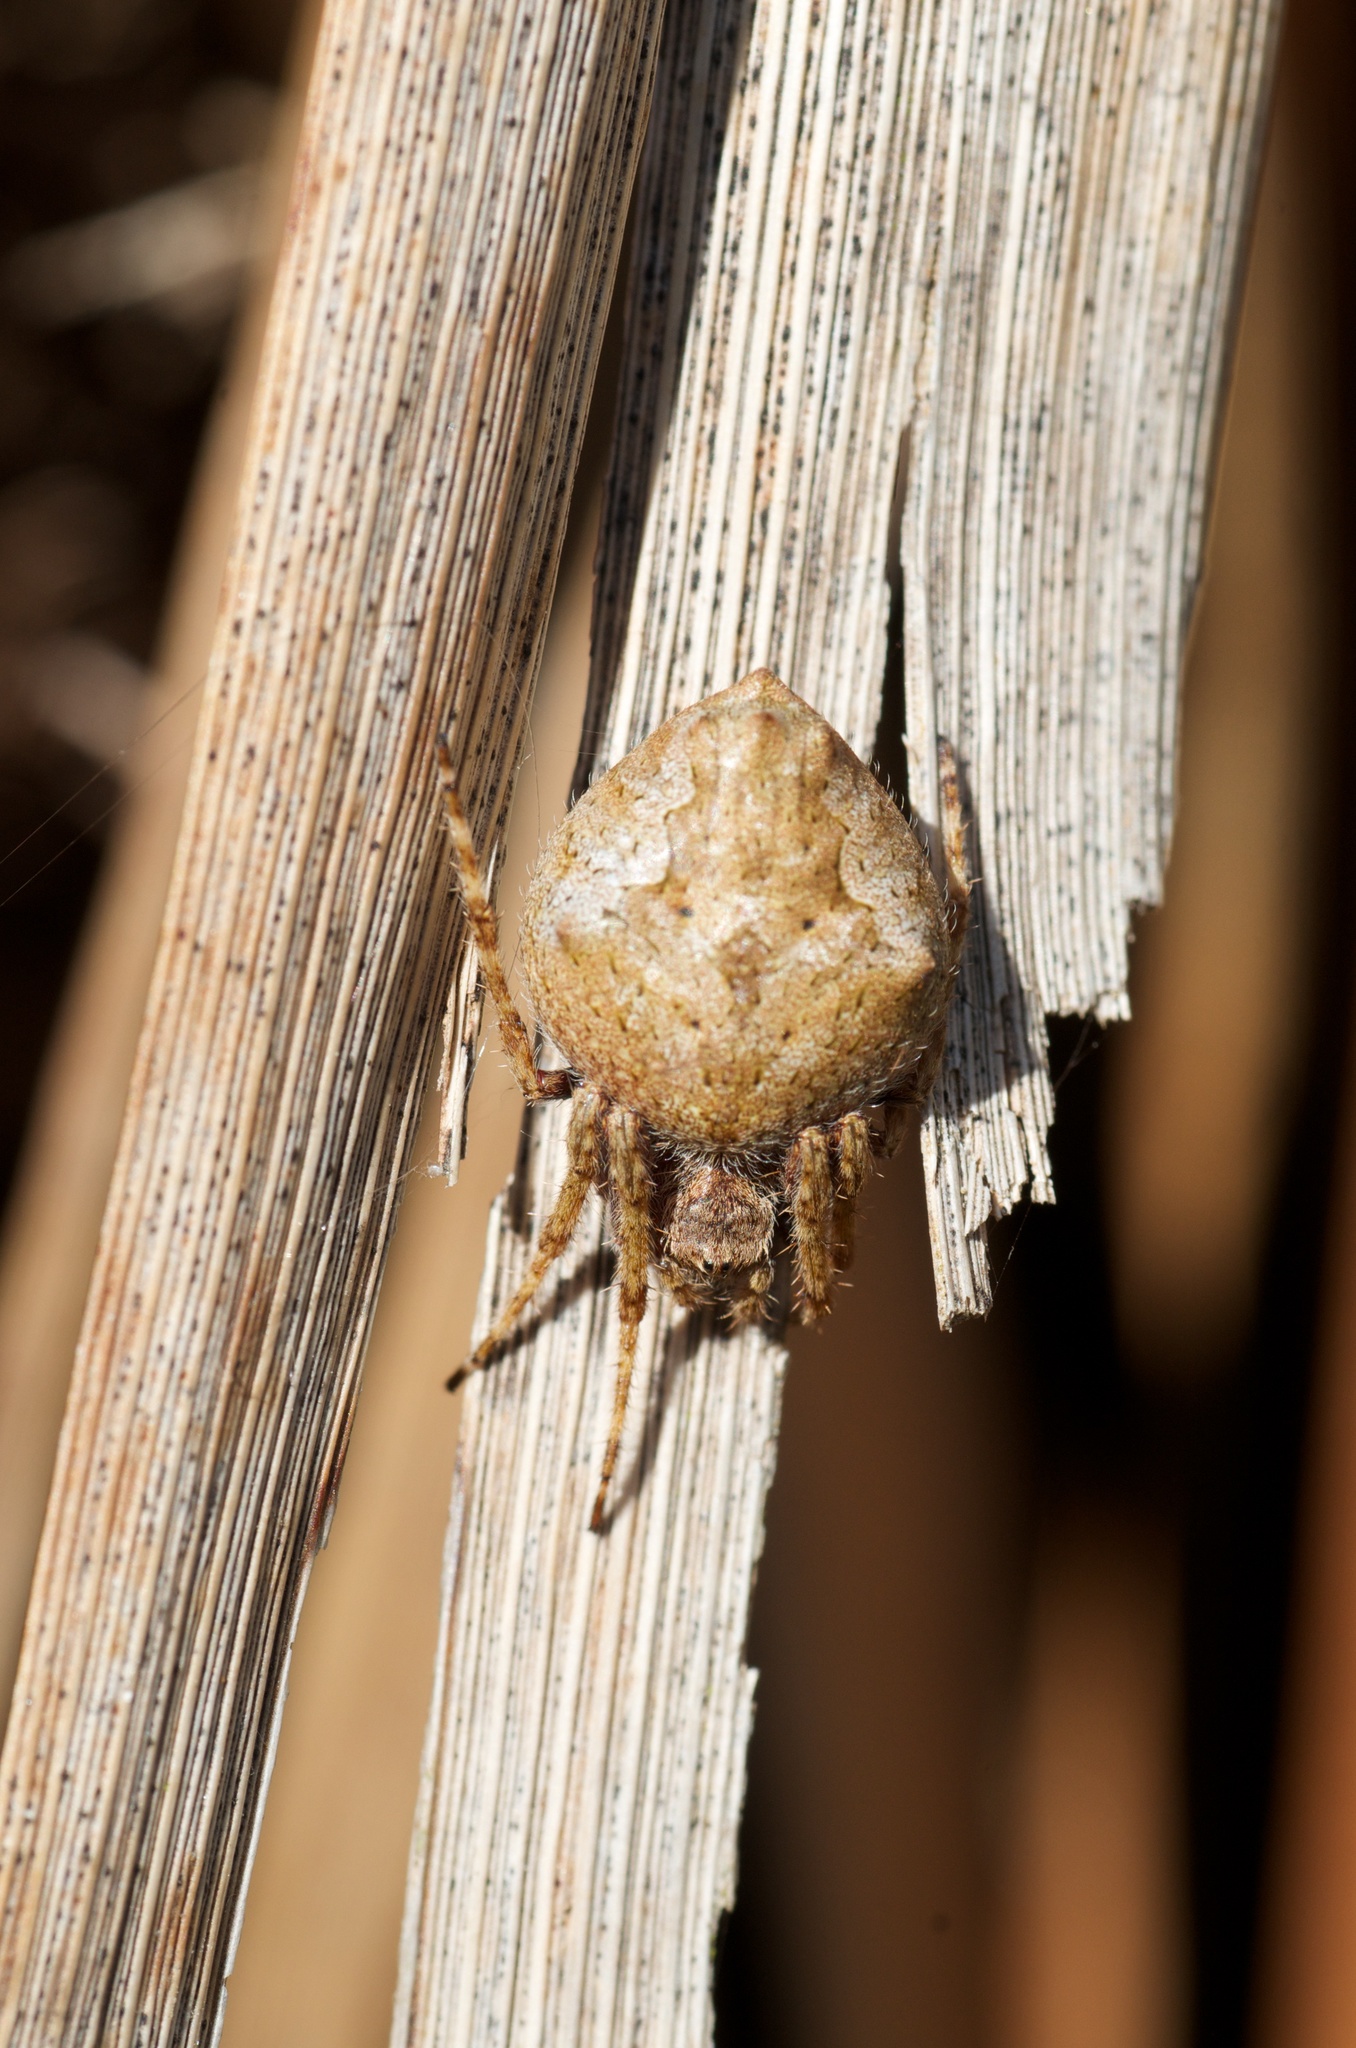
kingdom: Animalia
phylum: Arthropoda
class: Arachnida
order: Araneae
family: Araneidae
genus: Eriophora
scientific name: Eriophora pustulosa
